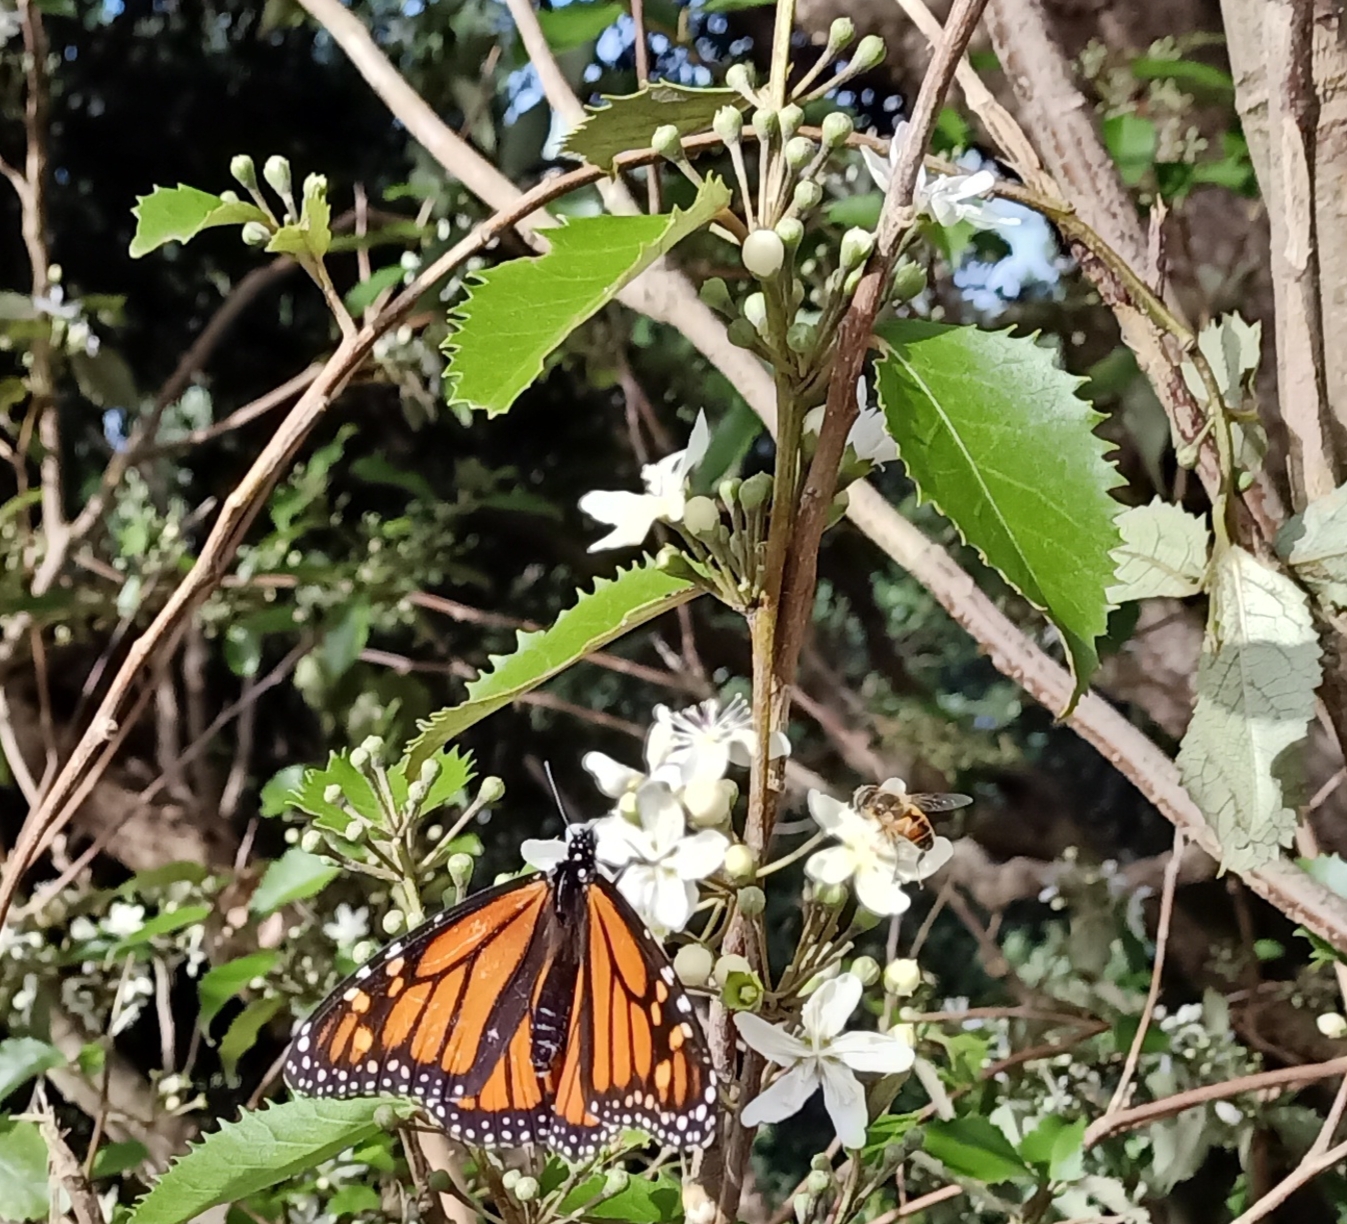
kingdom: Animalia
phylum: Arthropoda
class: Insecta
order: Lepidoptera
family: Nymphalidae
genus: Danaus
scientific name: Danaus plexippus
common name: Monarch
